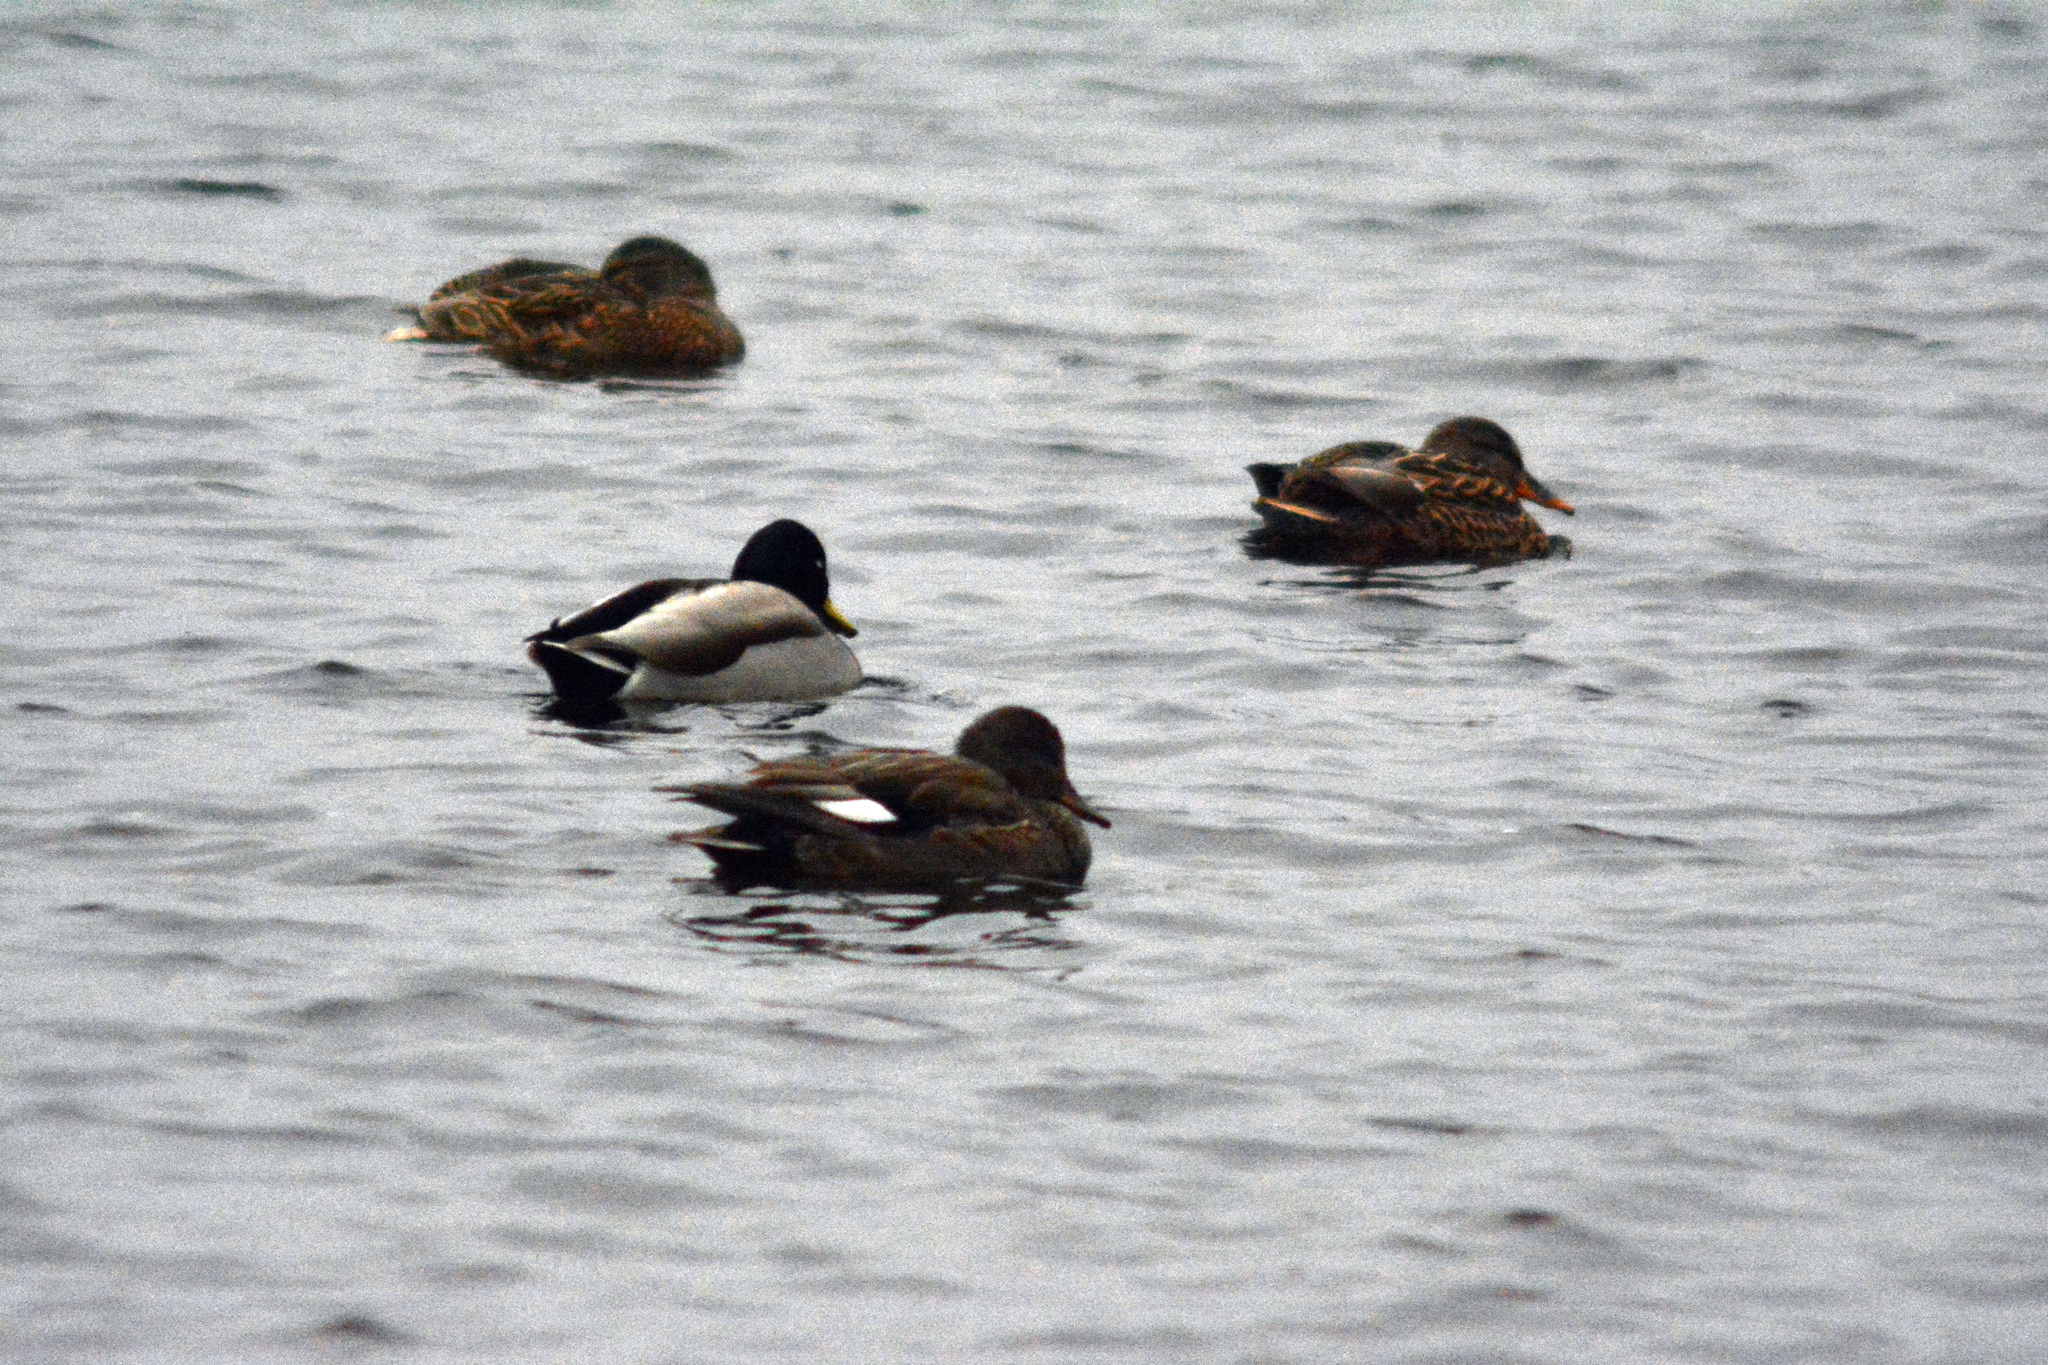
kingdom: Animalia
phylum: Chordata
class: Aves
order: Anseriformes
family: Anatidae
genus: Mareca
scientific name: Mareca strepera
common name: Gadwall
